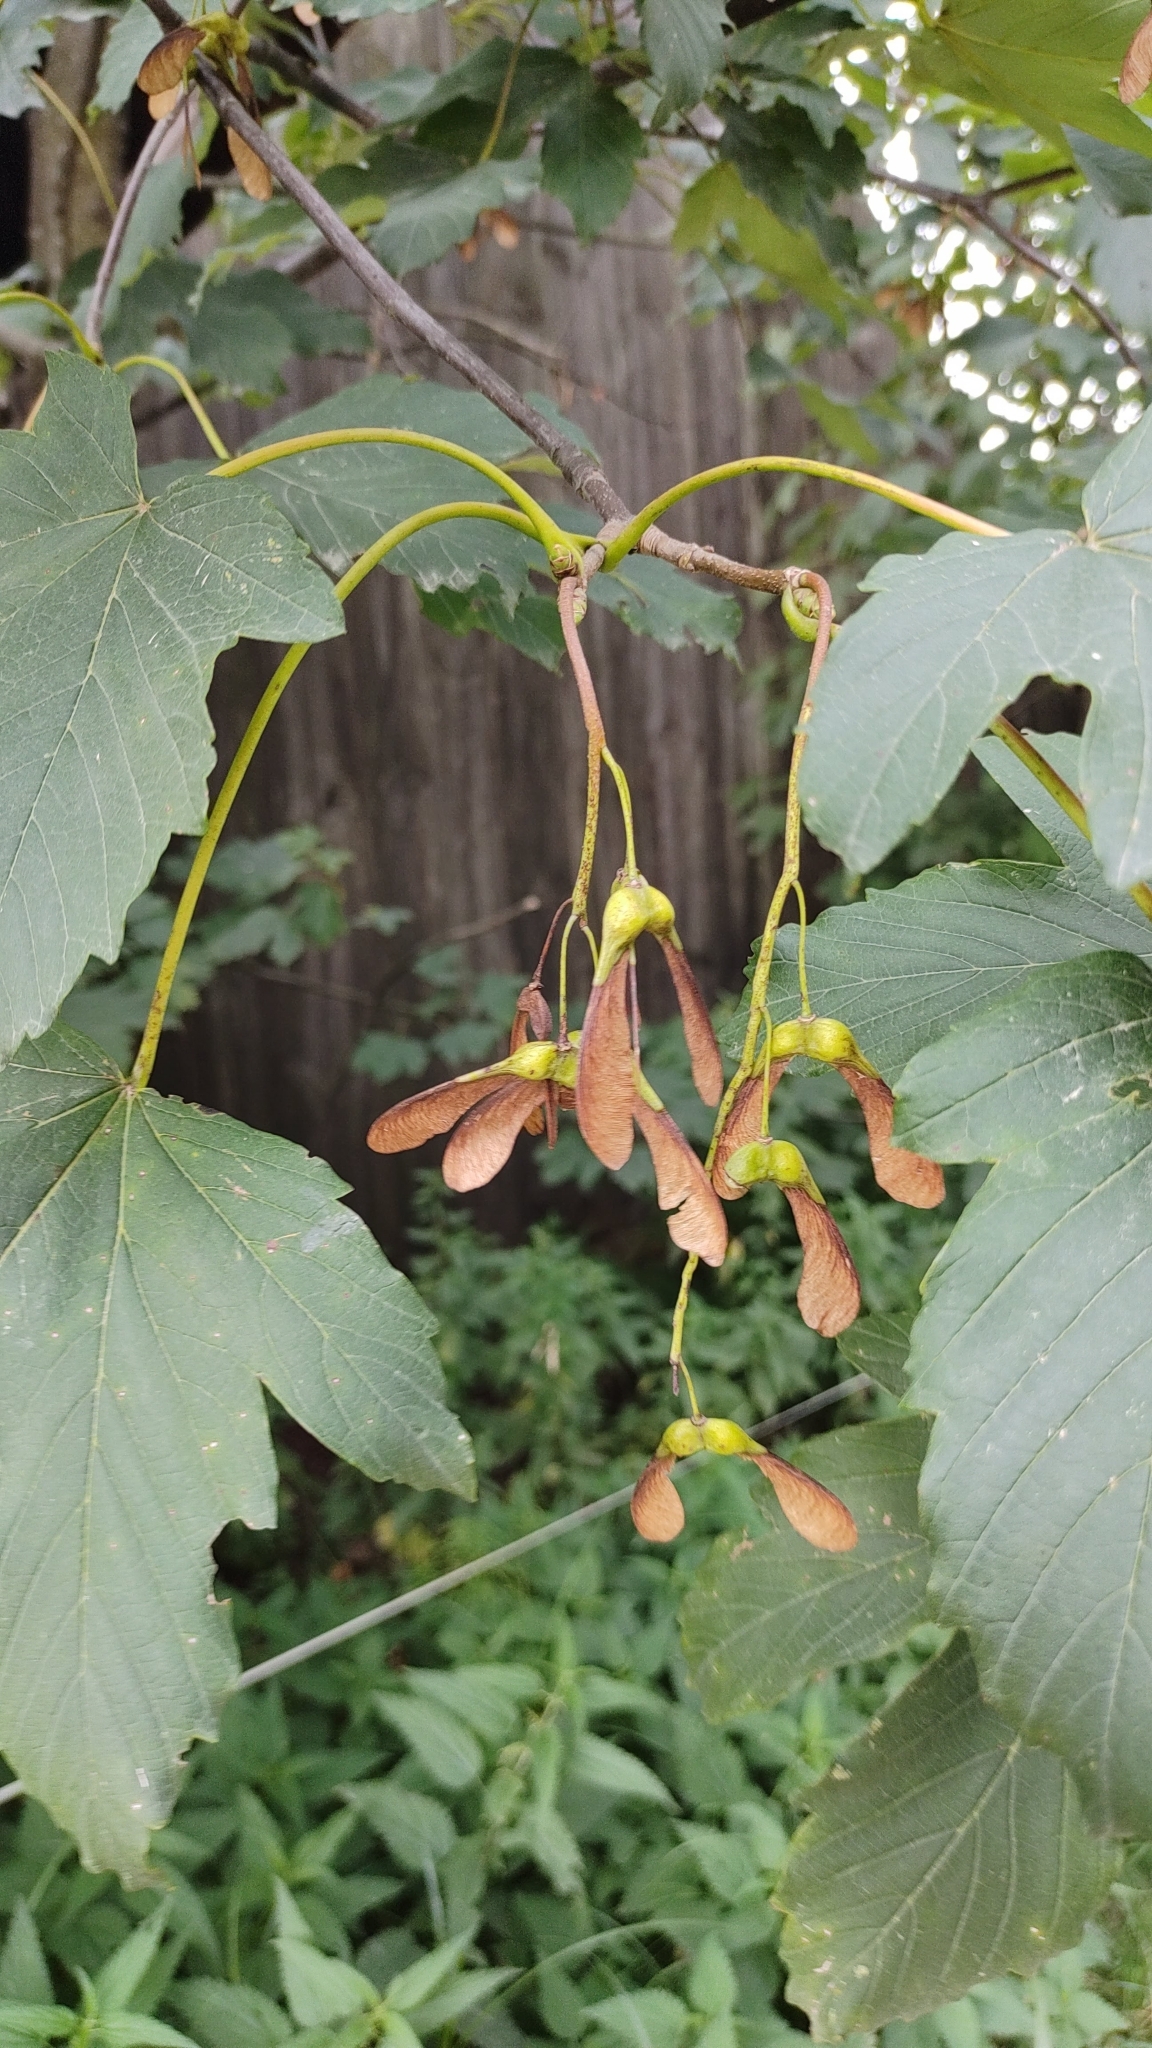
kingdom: Plantae
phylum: Tracheophyta
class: Magnoliopsida
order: Sapindales
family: Sapindaceae
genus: Acer
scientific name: Acer pseudoplatanus
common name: Sycamore
